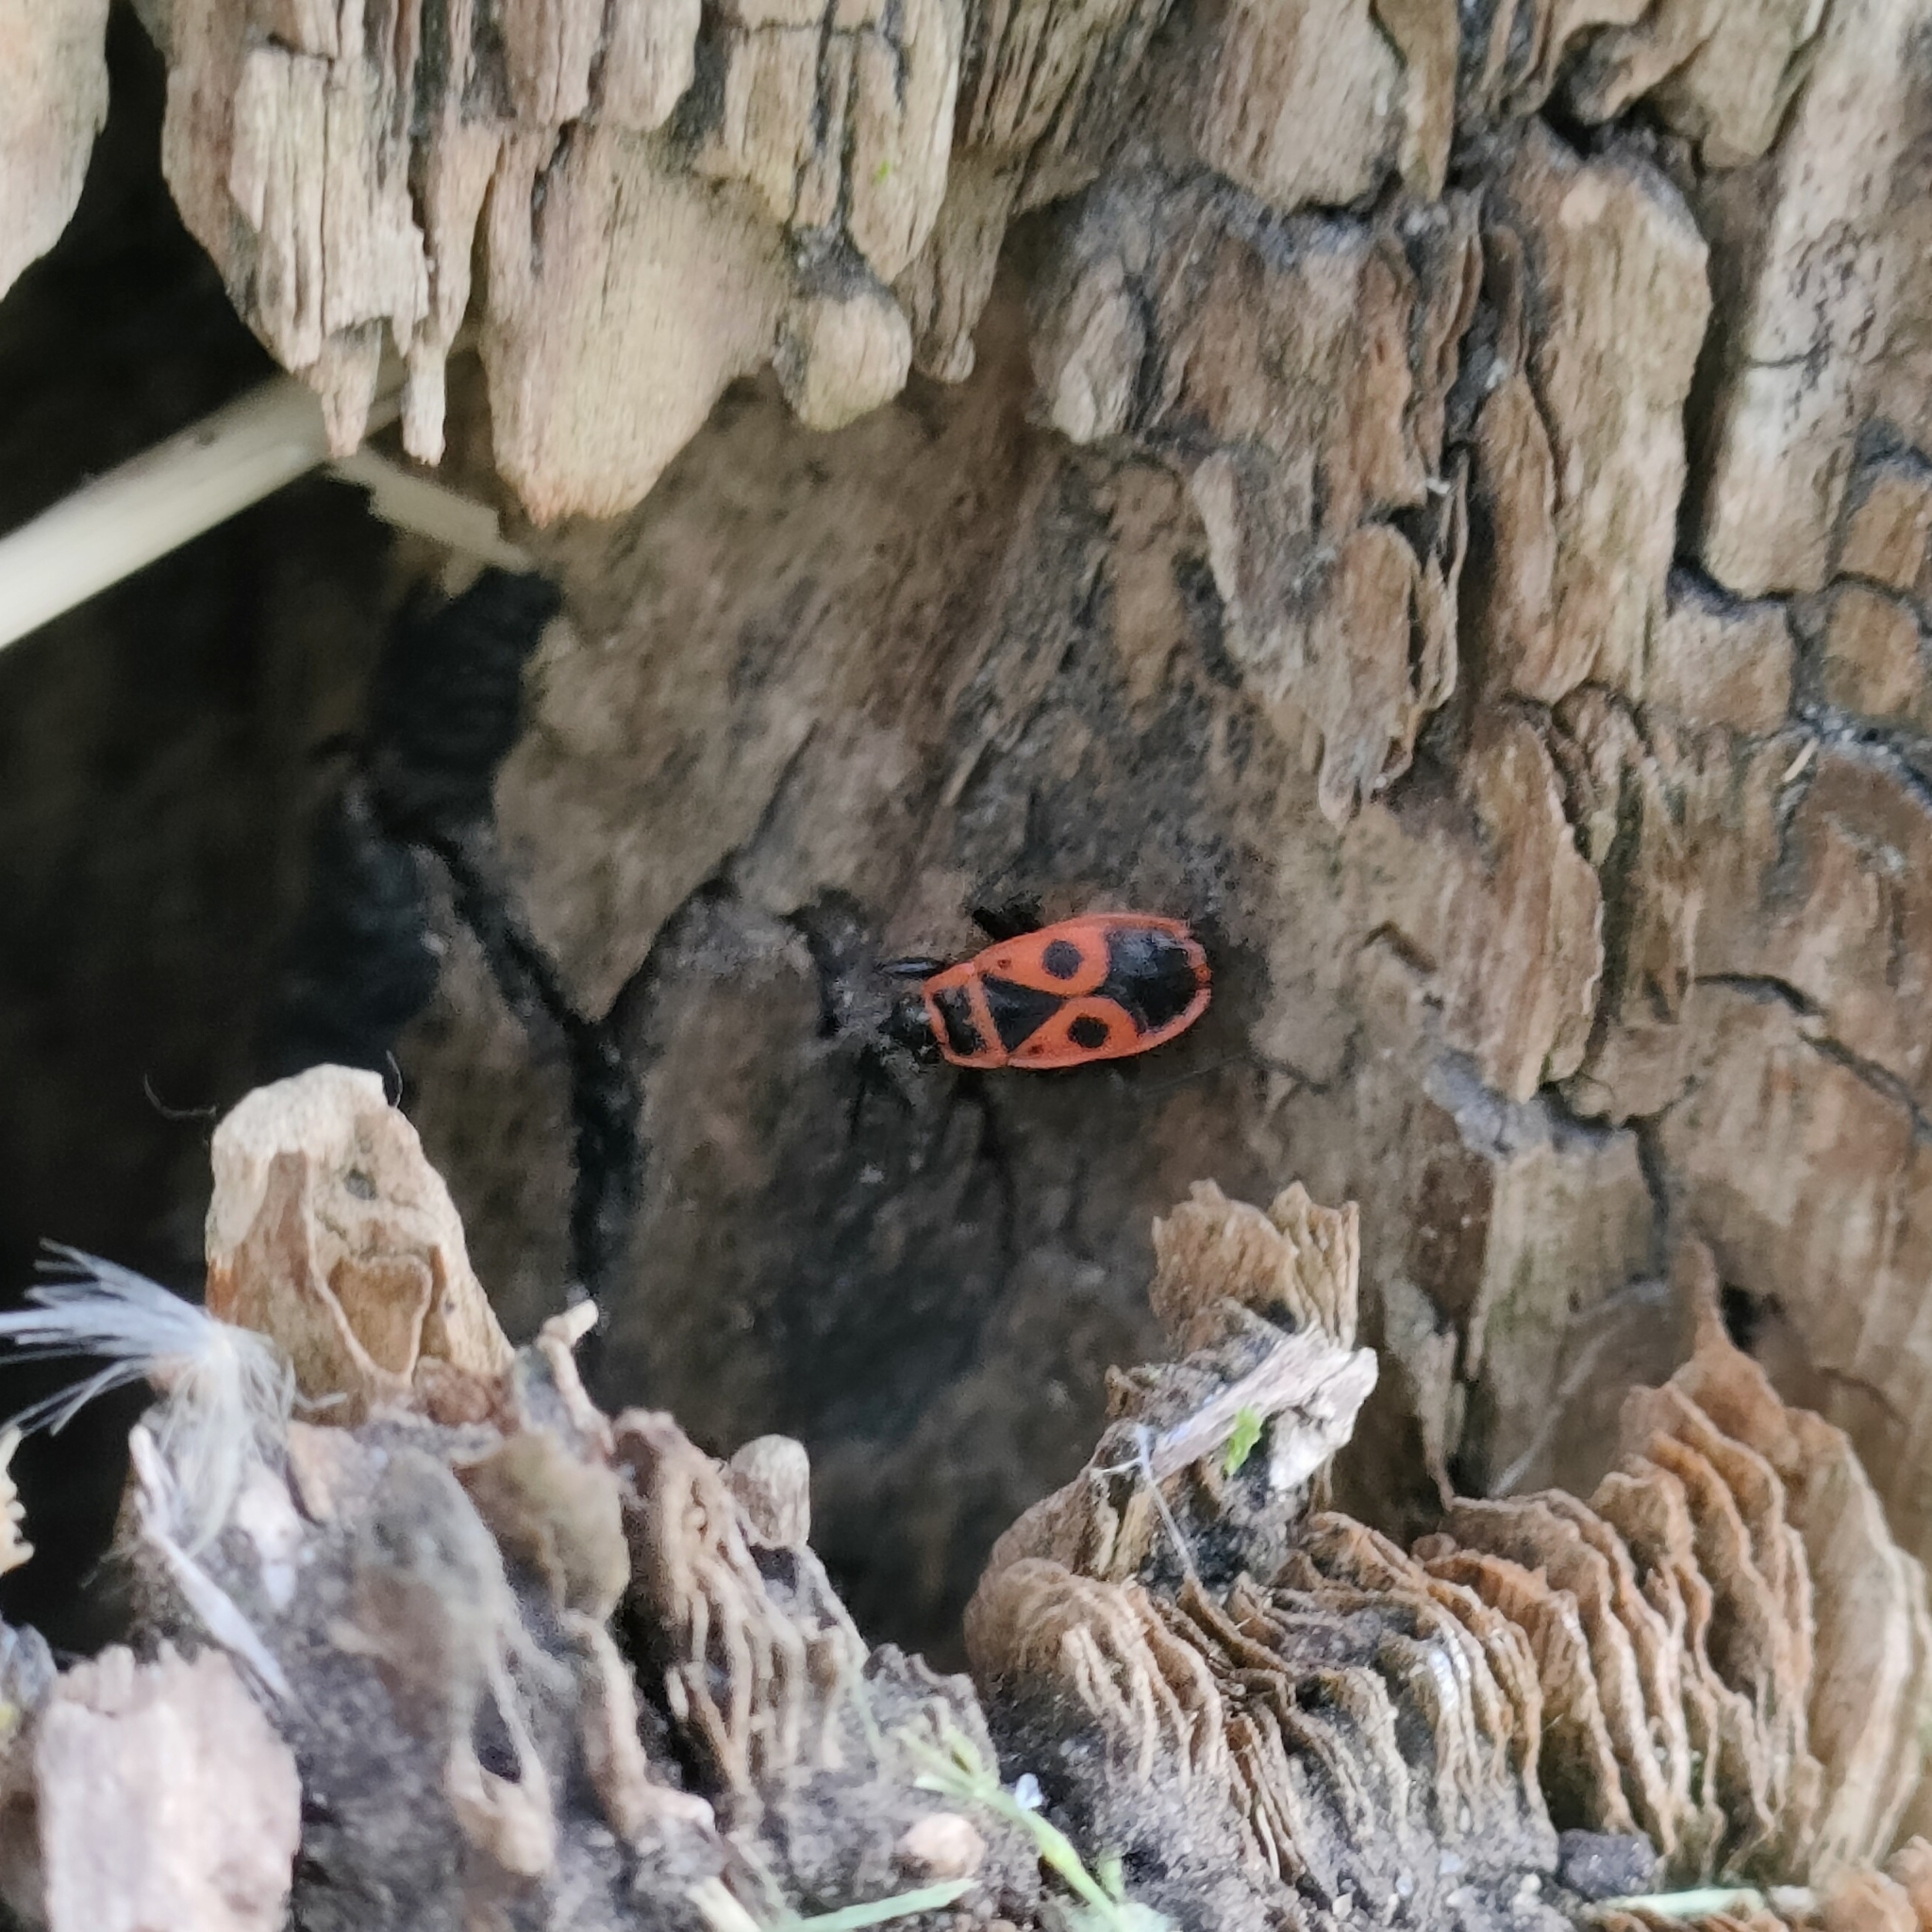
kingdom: Animalia
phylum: Arthropoda
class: Insecta
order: Hemiptera
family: Pyrrhocoridae
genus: Pyrrhocoris
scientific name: Pyrrhocoris apterus
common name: Firebug
